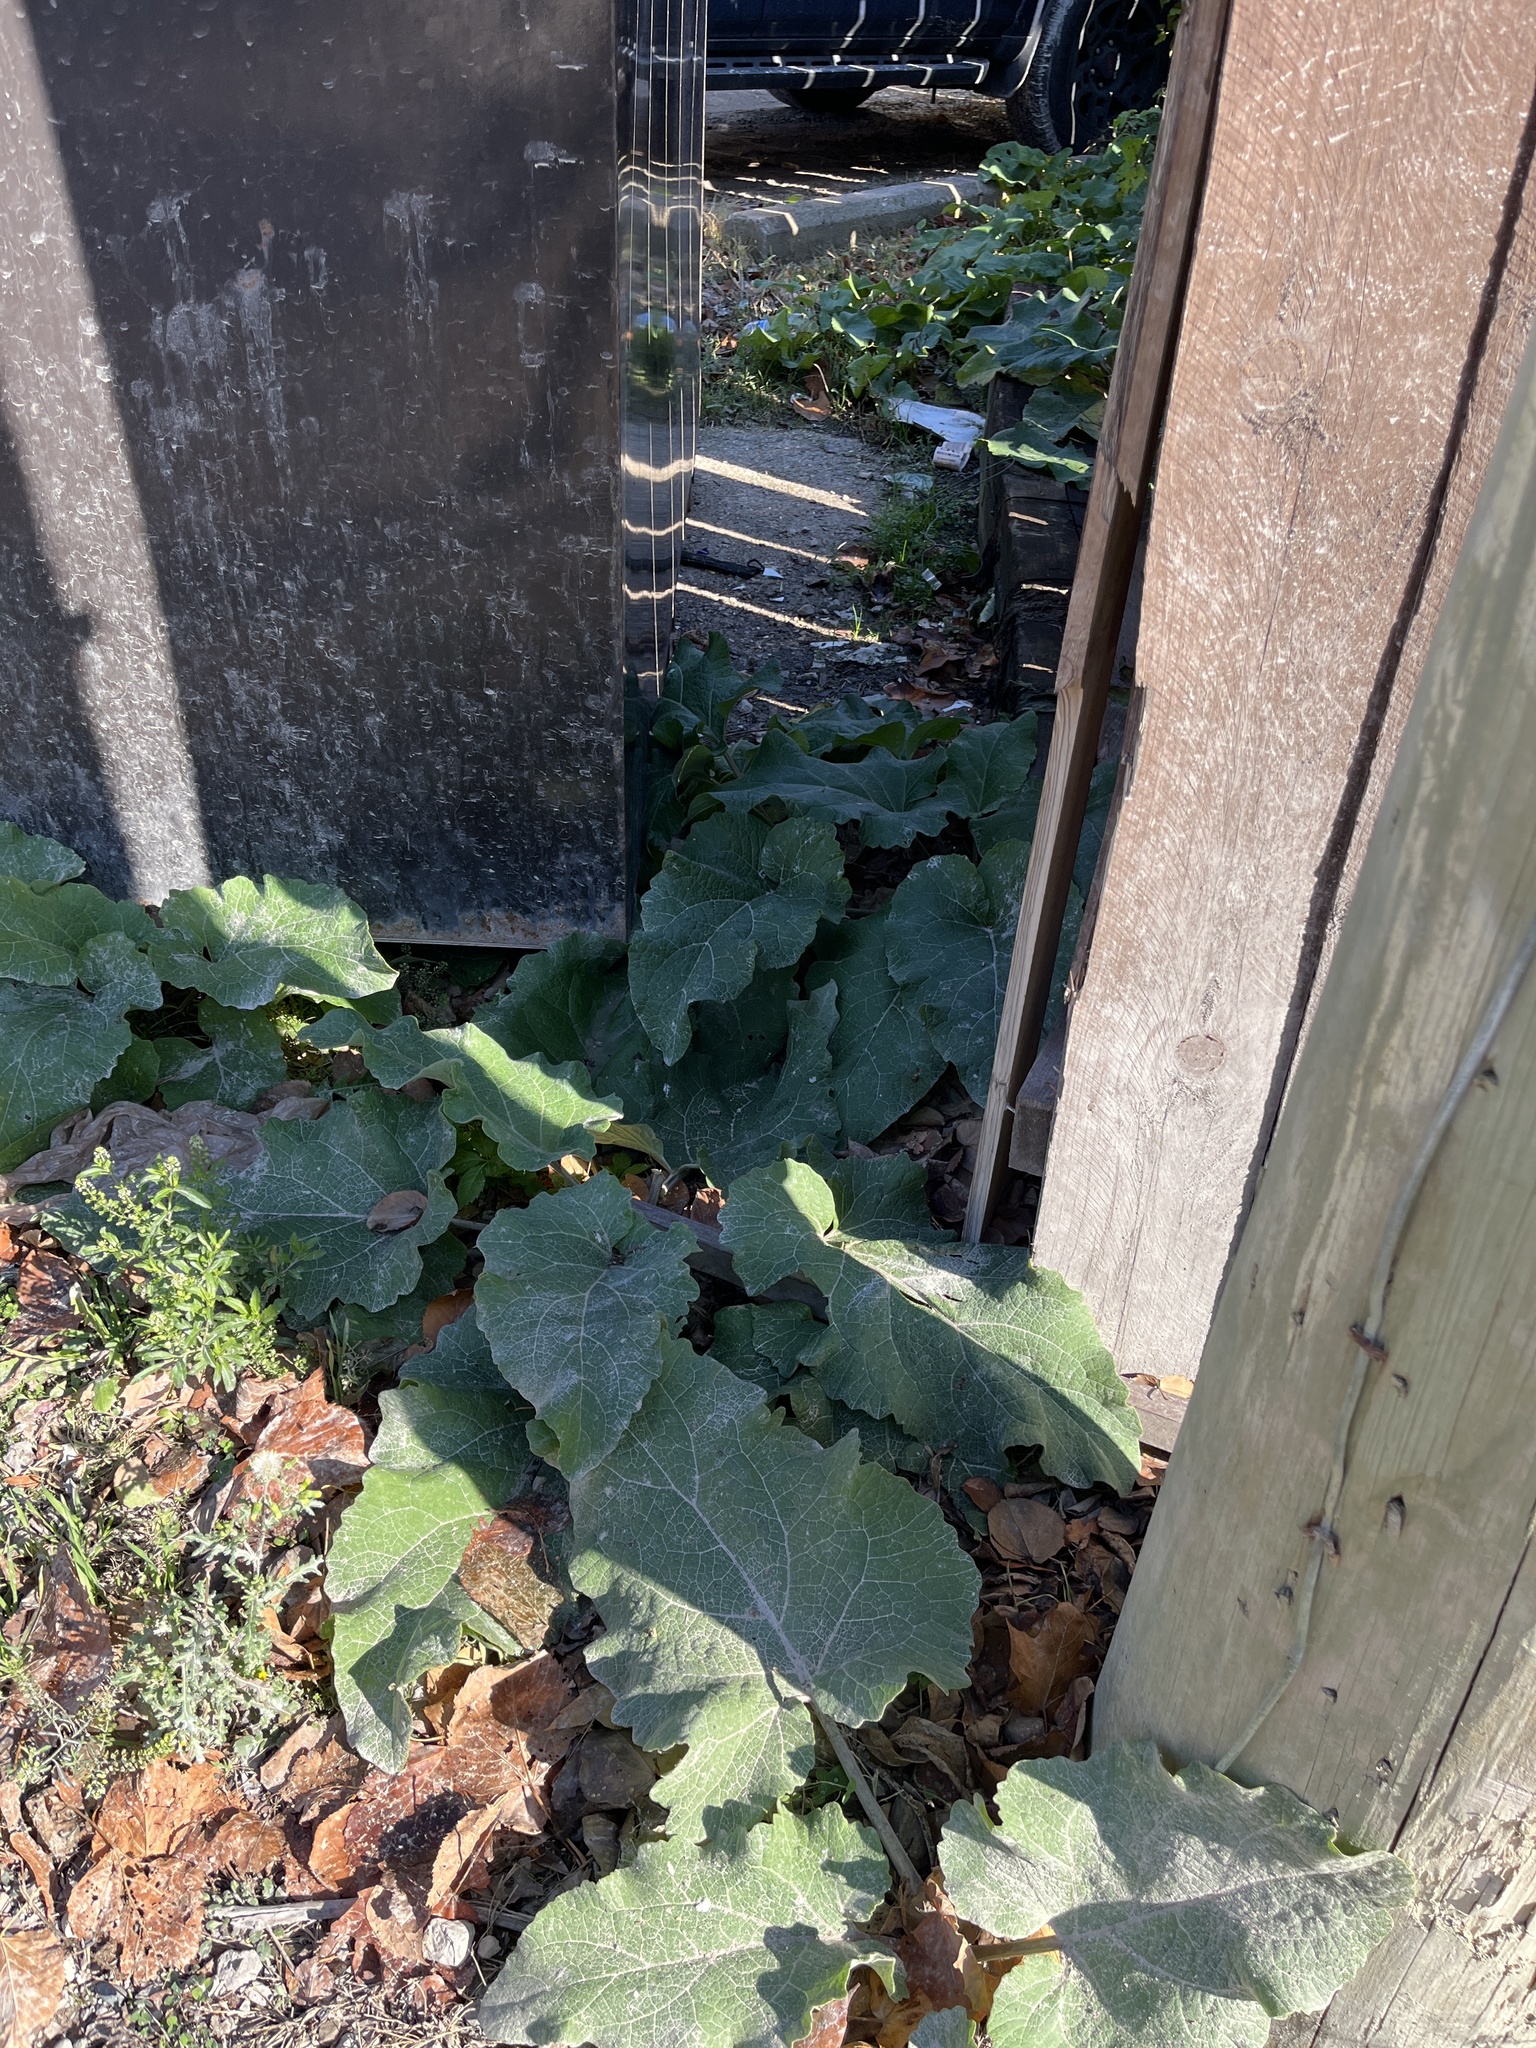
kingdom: Plantae
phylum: Tracheophyta
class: Magnoliopsida
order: Asterales
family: Asteraceae
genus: Arctium
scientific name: Arctium
